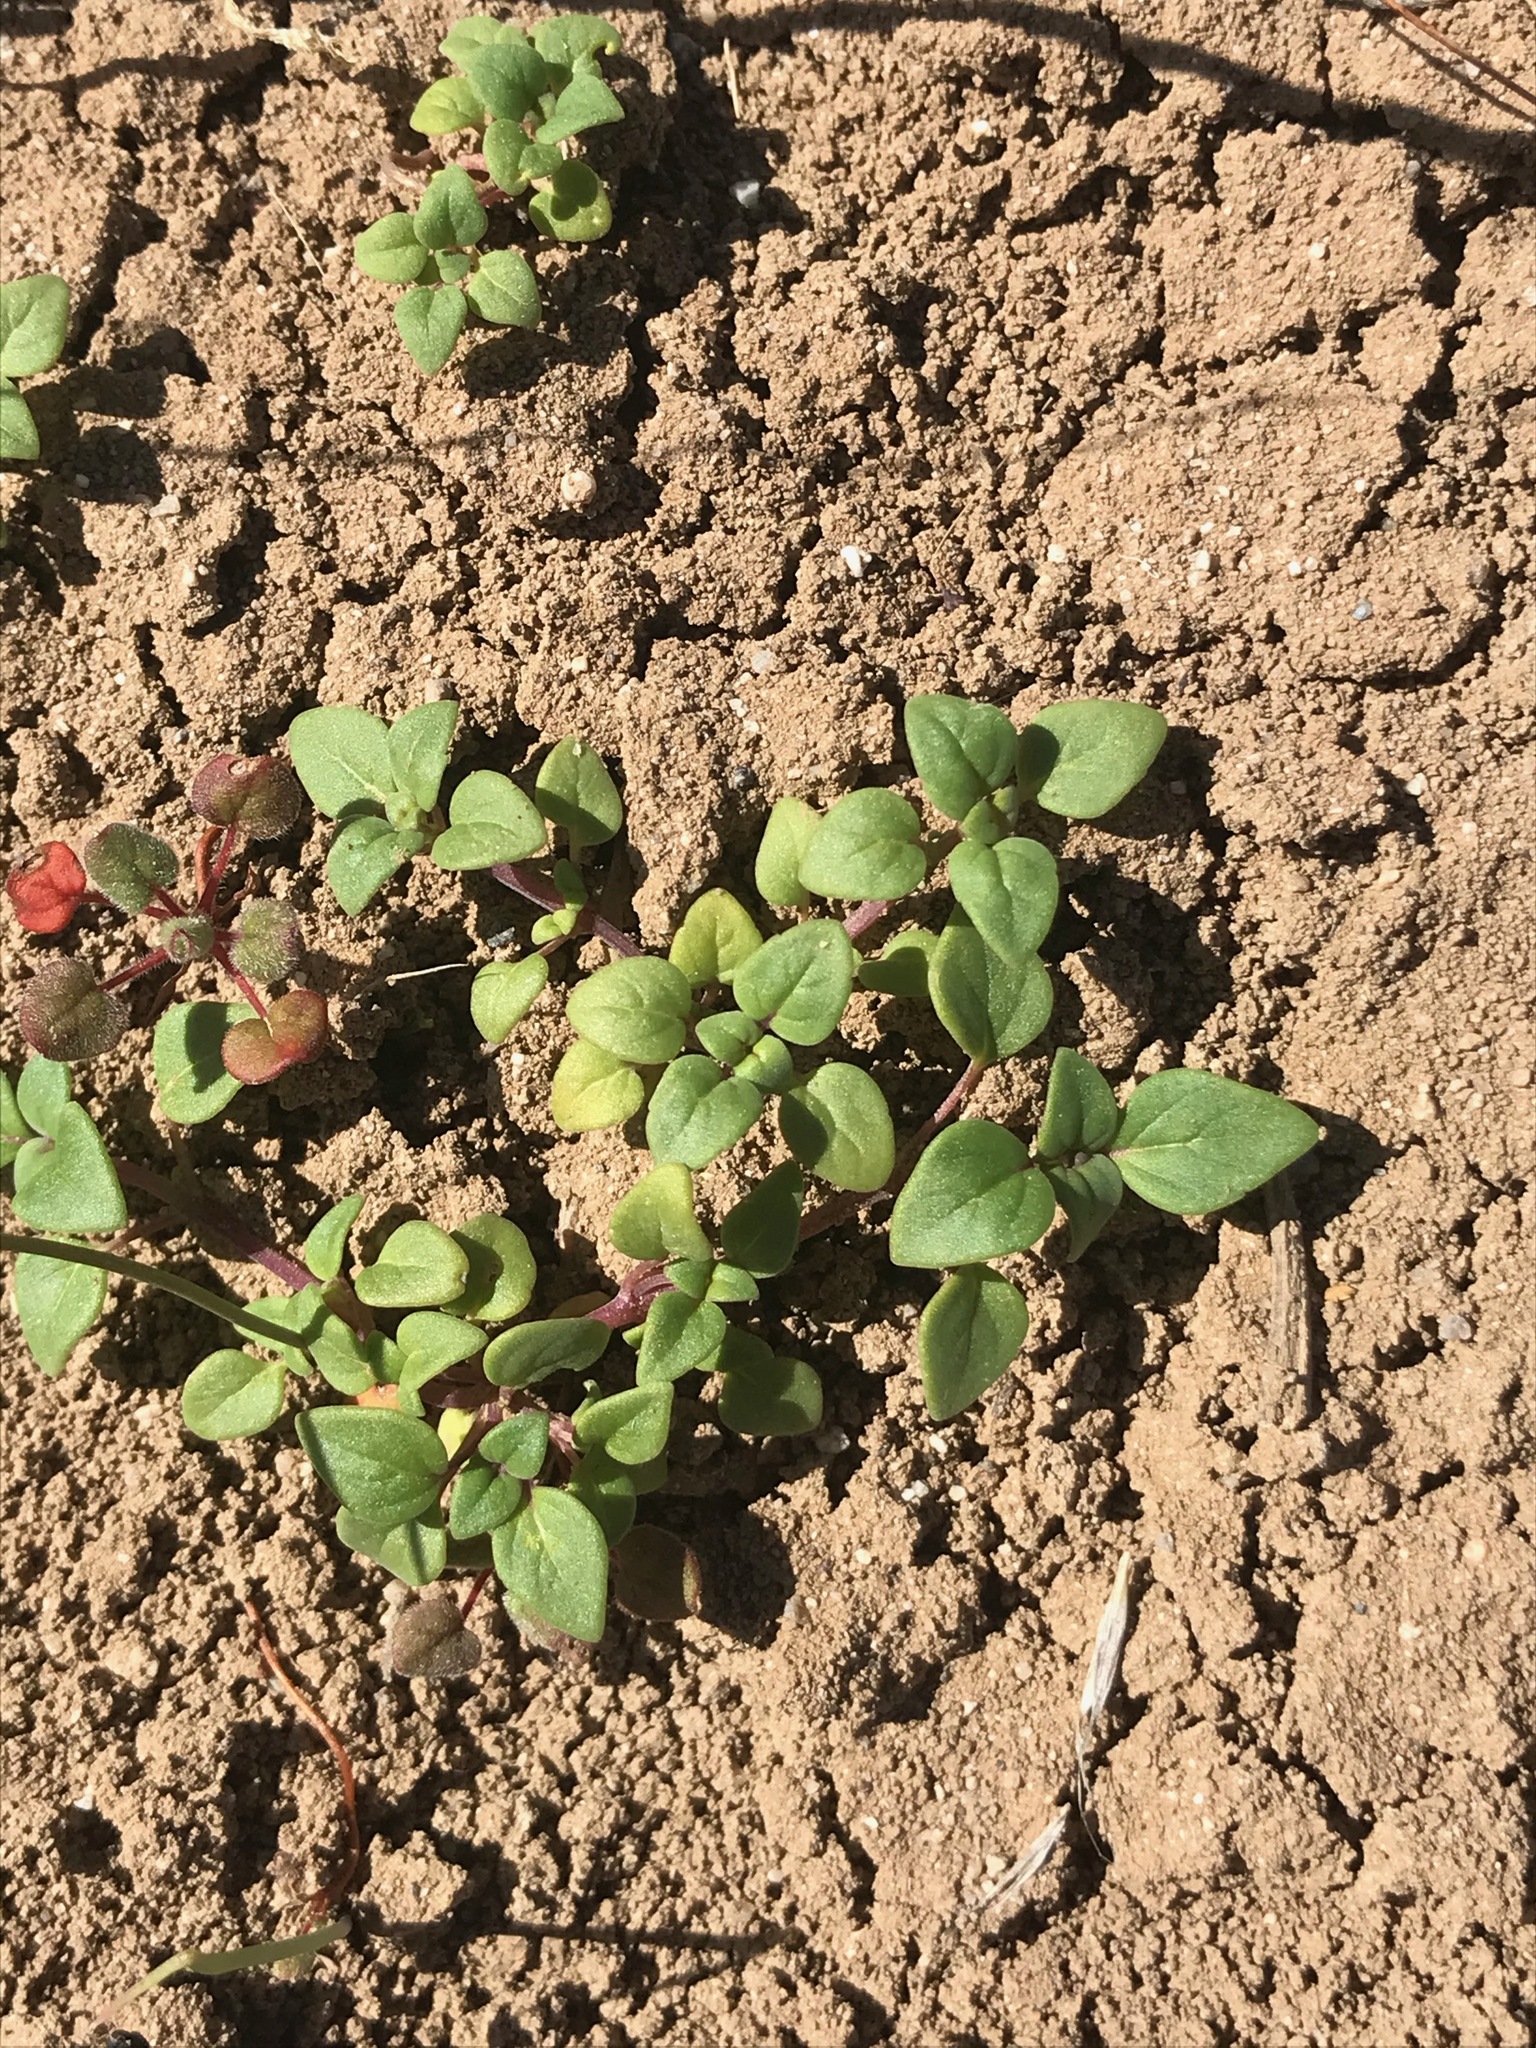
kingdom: Plantae
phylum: Tracheophyta
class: Magnoliopsida
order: Lamiales
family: Lamiaceae
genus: Acanthomintha
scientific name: Acanthomintha obovata
